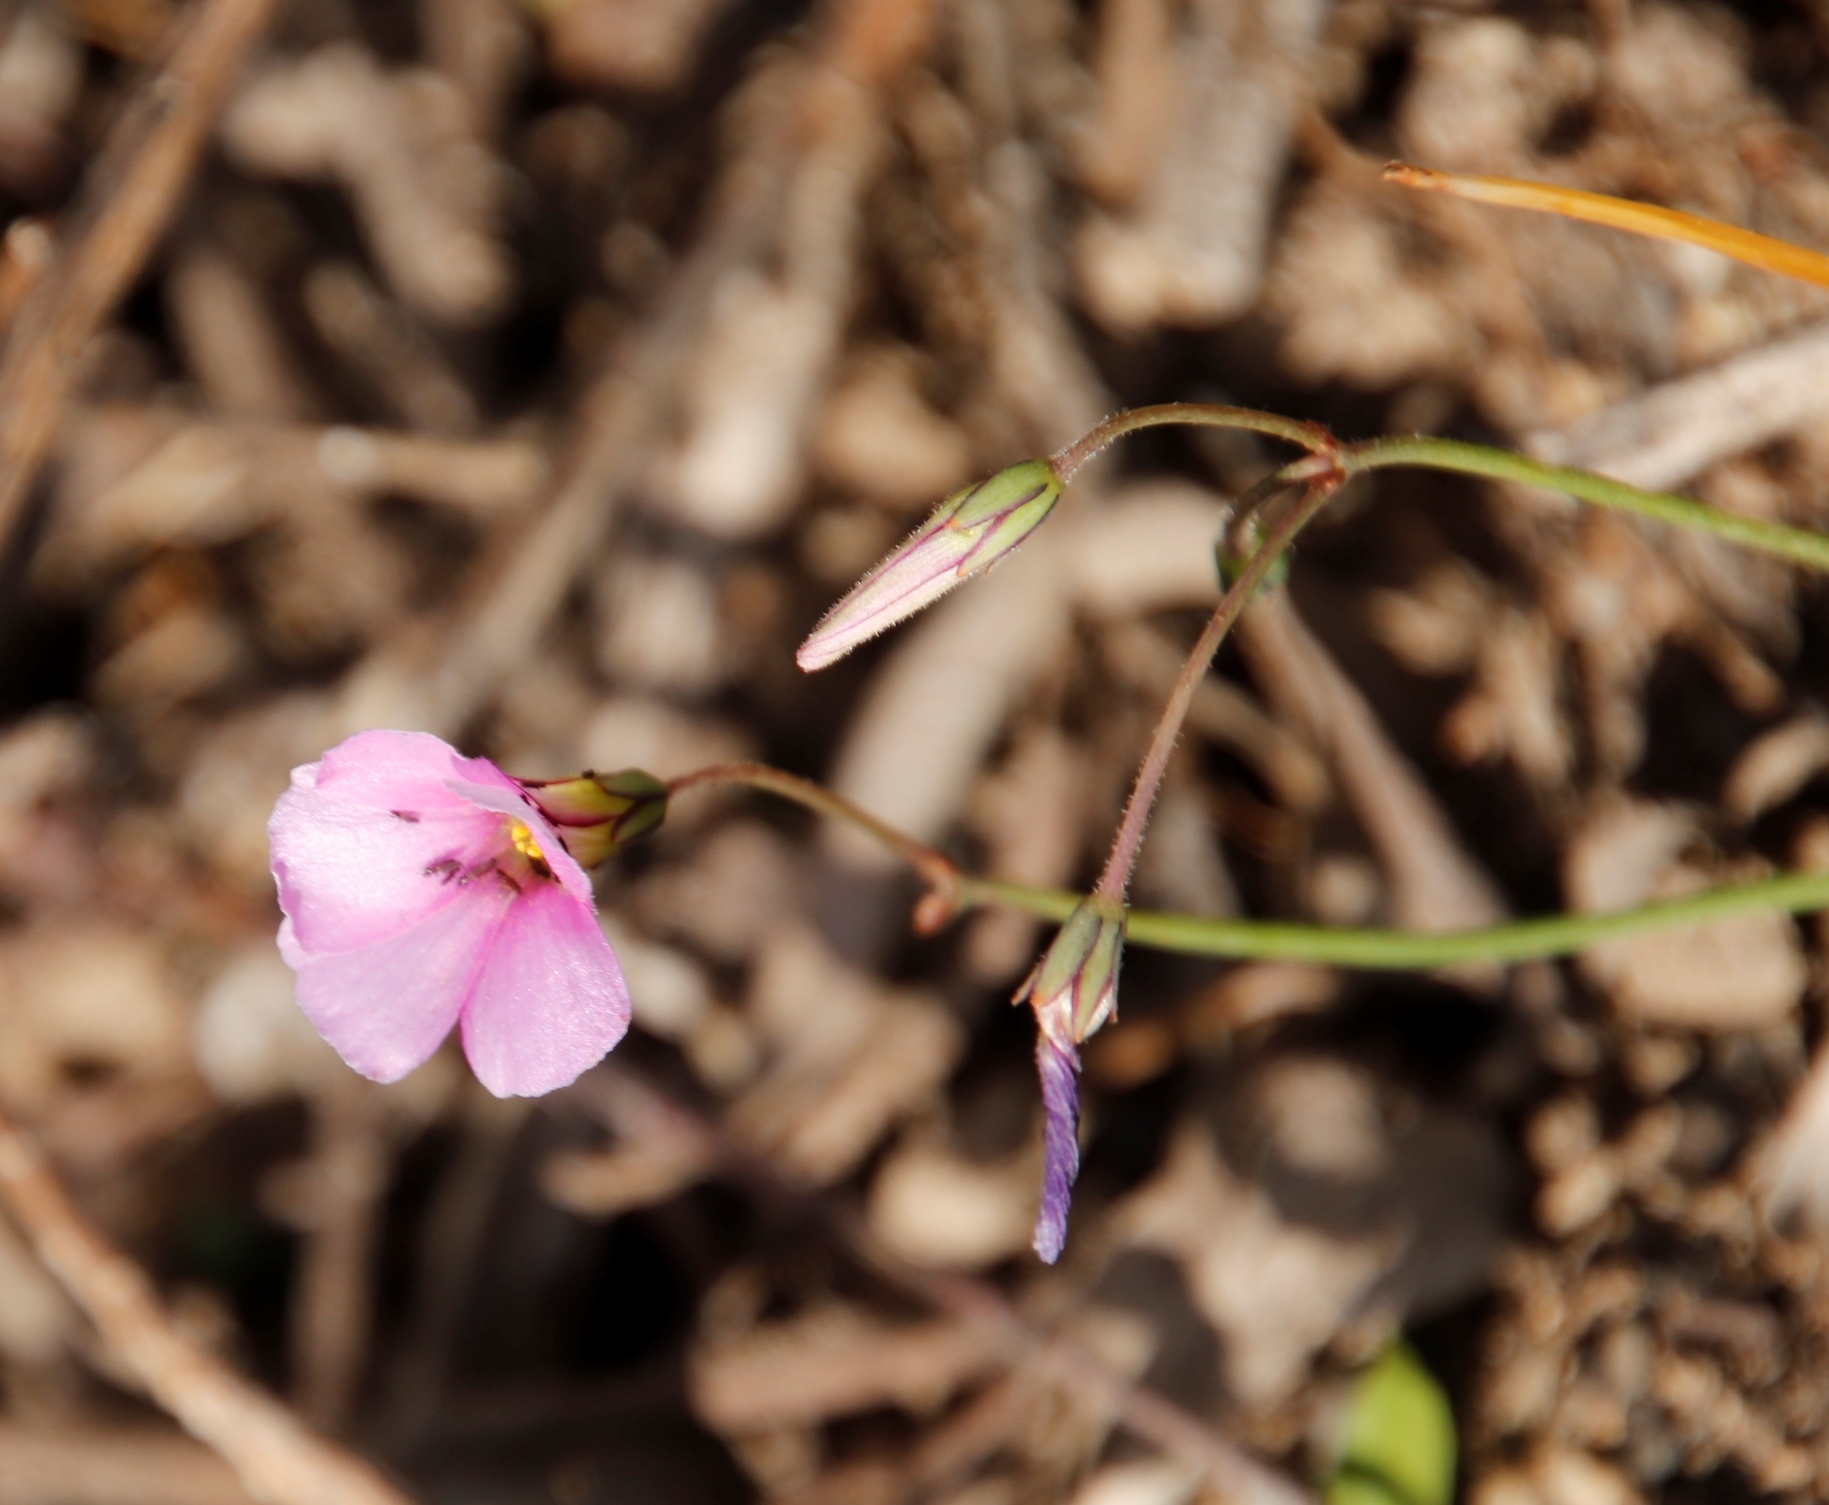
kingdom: Plantae
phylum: Tracheophyta
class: Magnoliopsida
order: Oxalidales
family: Oxalidaceae
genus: Oxalis
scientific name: Oxalis livida
